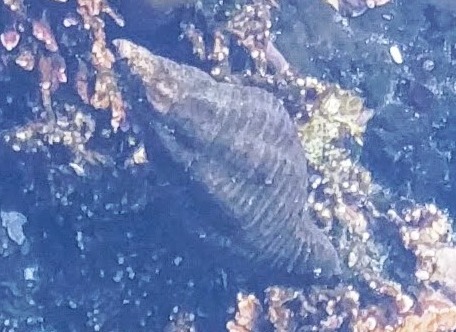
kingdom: Animalia
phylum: Mollusca
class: Gastropoda
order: Neogastropoda
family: Tudiclidae
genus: Lirabuccinum
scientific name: Lirabuccinum dirum
